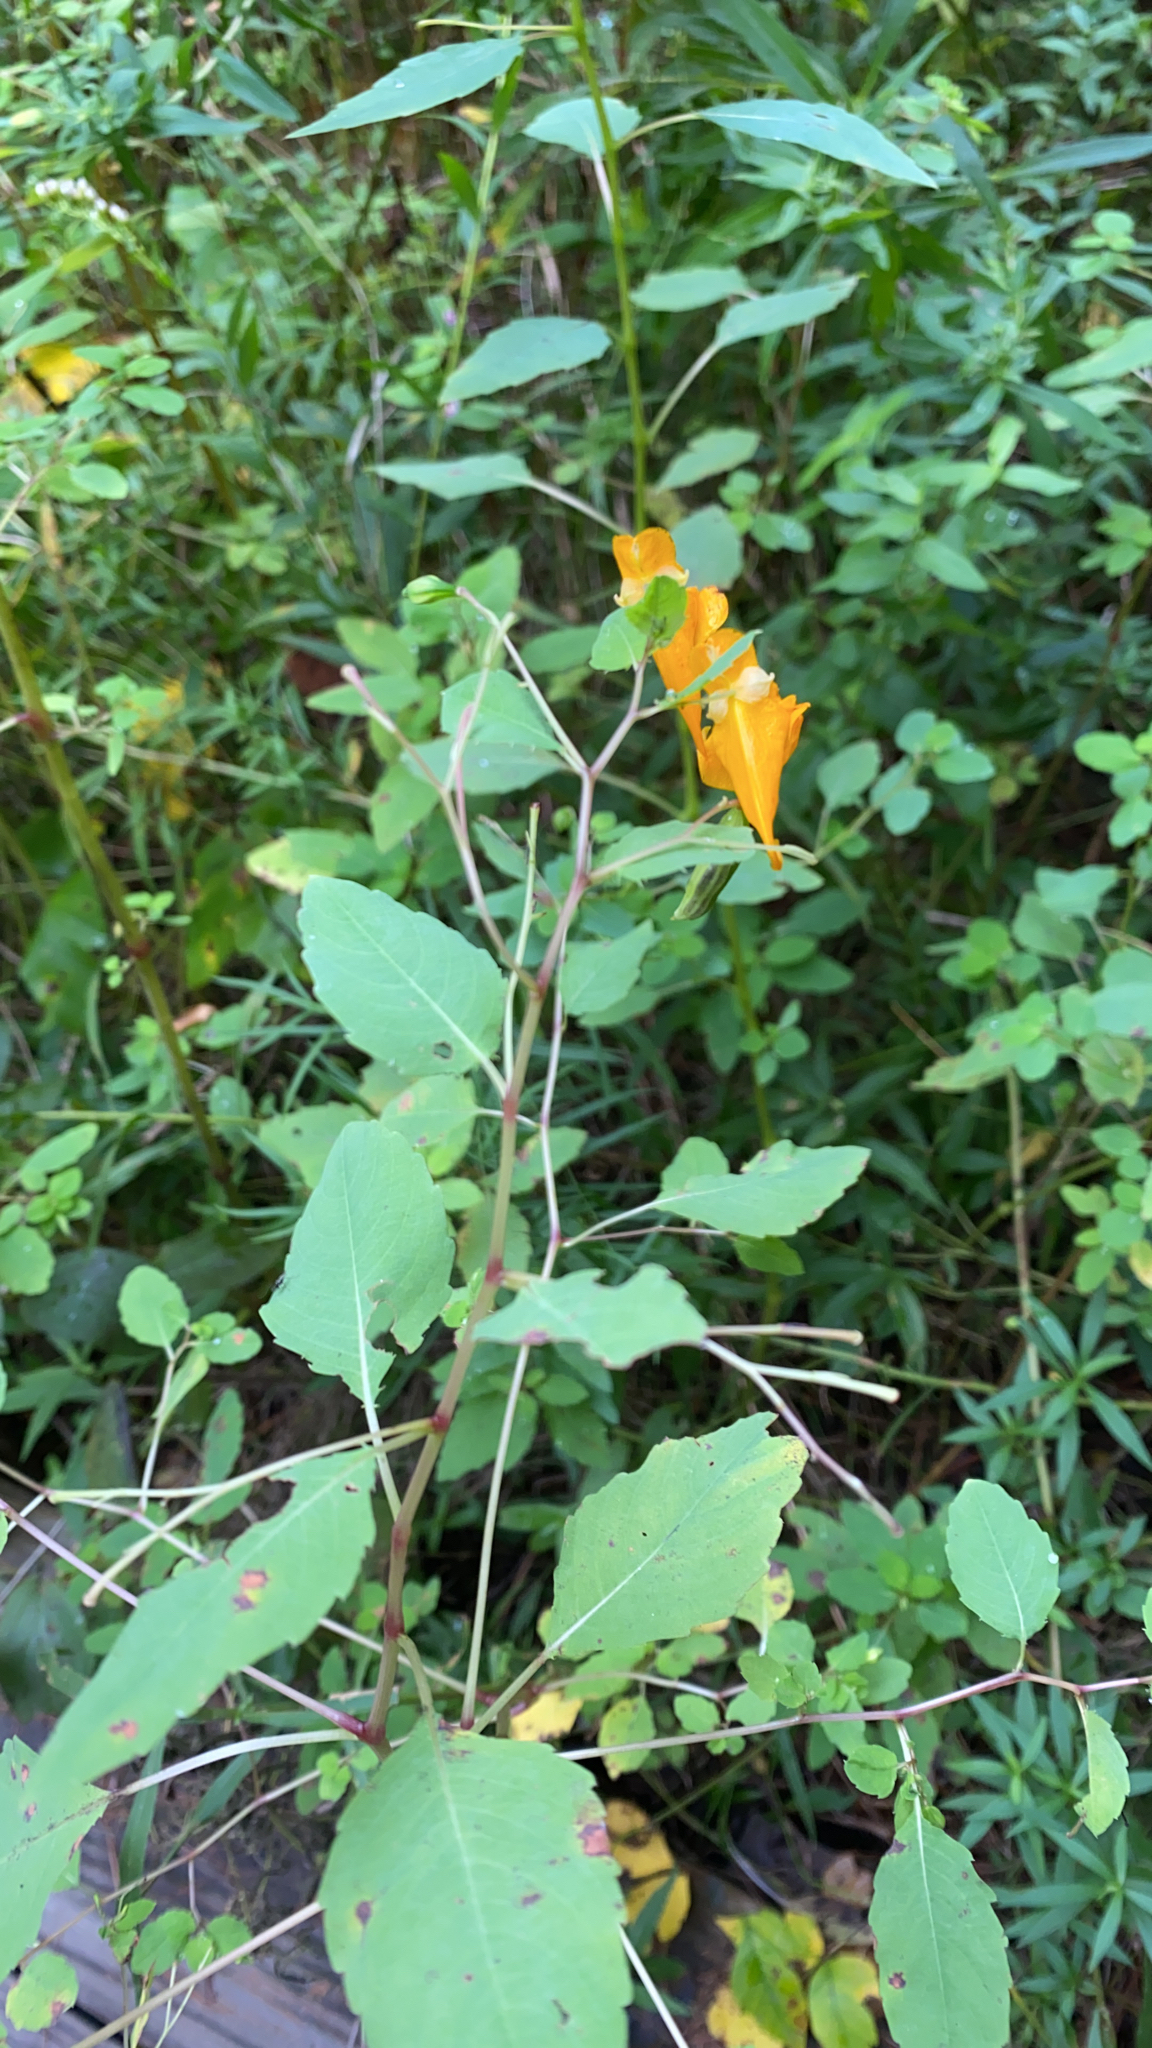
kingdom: Plantae
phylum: Tracheophyta
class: Magnoliopsida
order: Ericales
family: Balsaminaceae
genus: Impatiens
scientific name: Impatiens capensis
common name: Orange balsam
